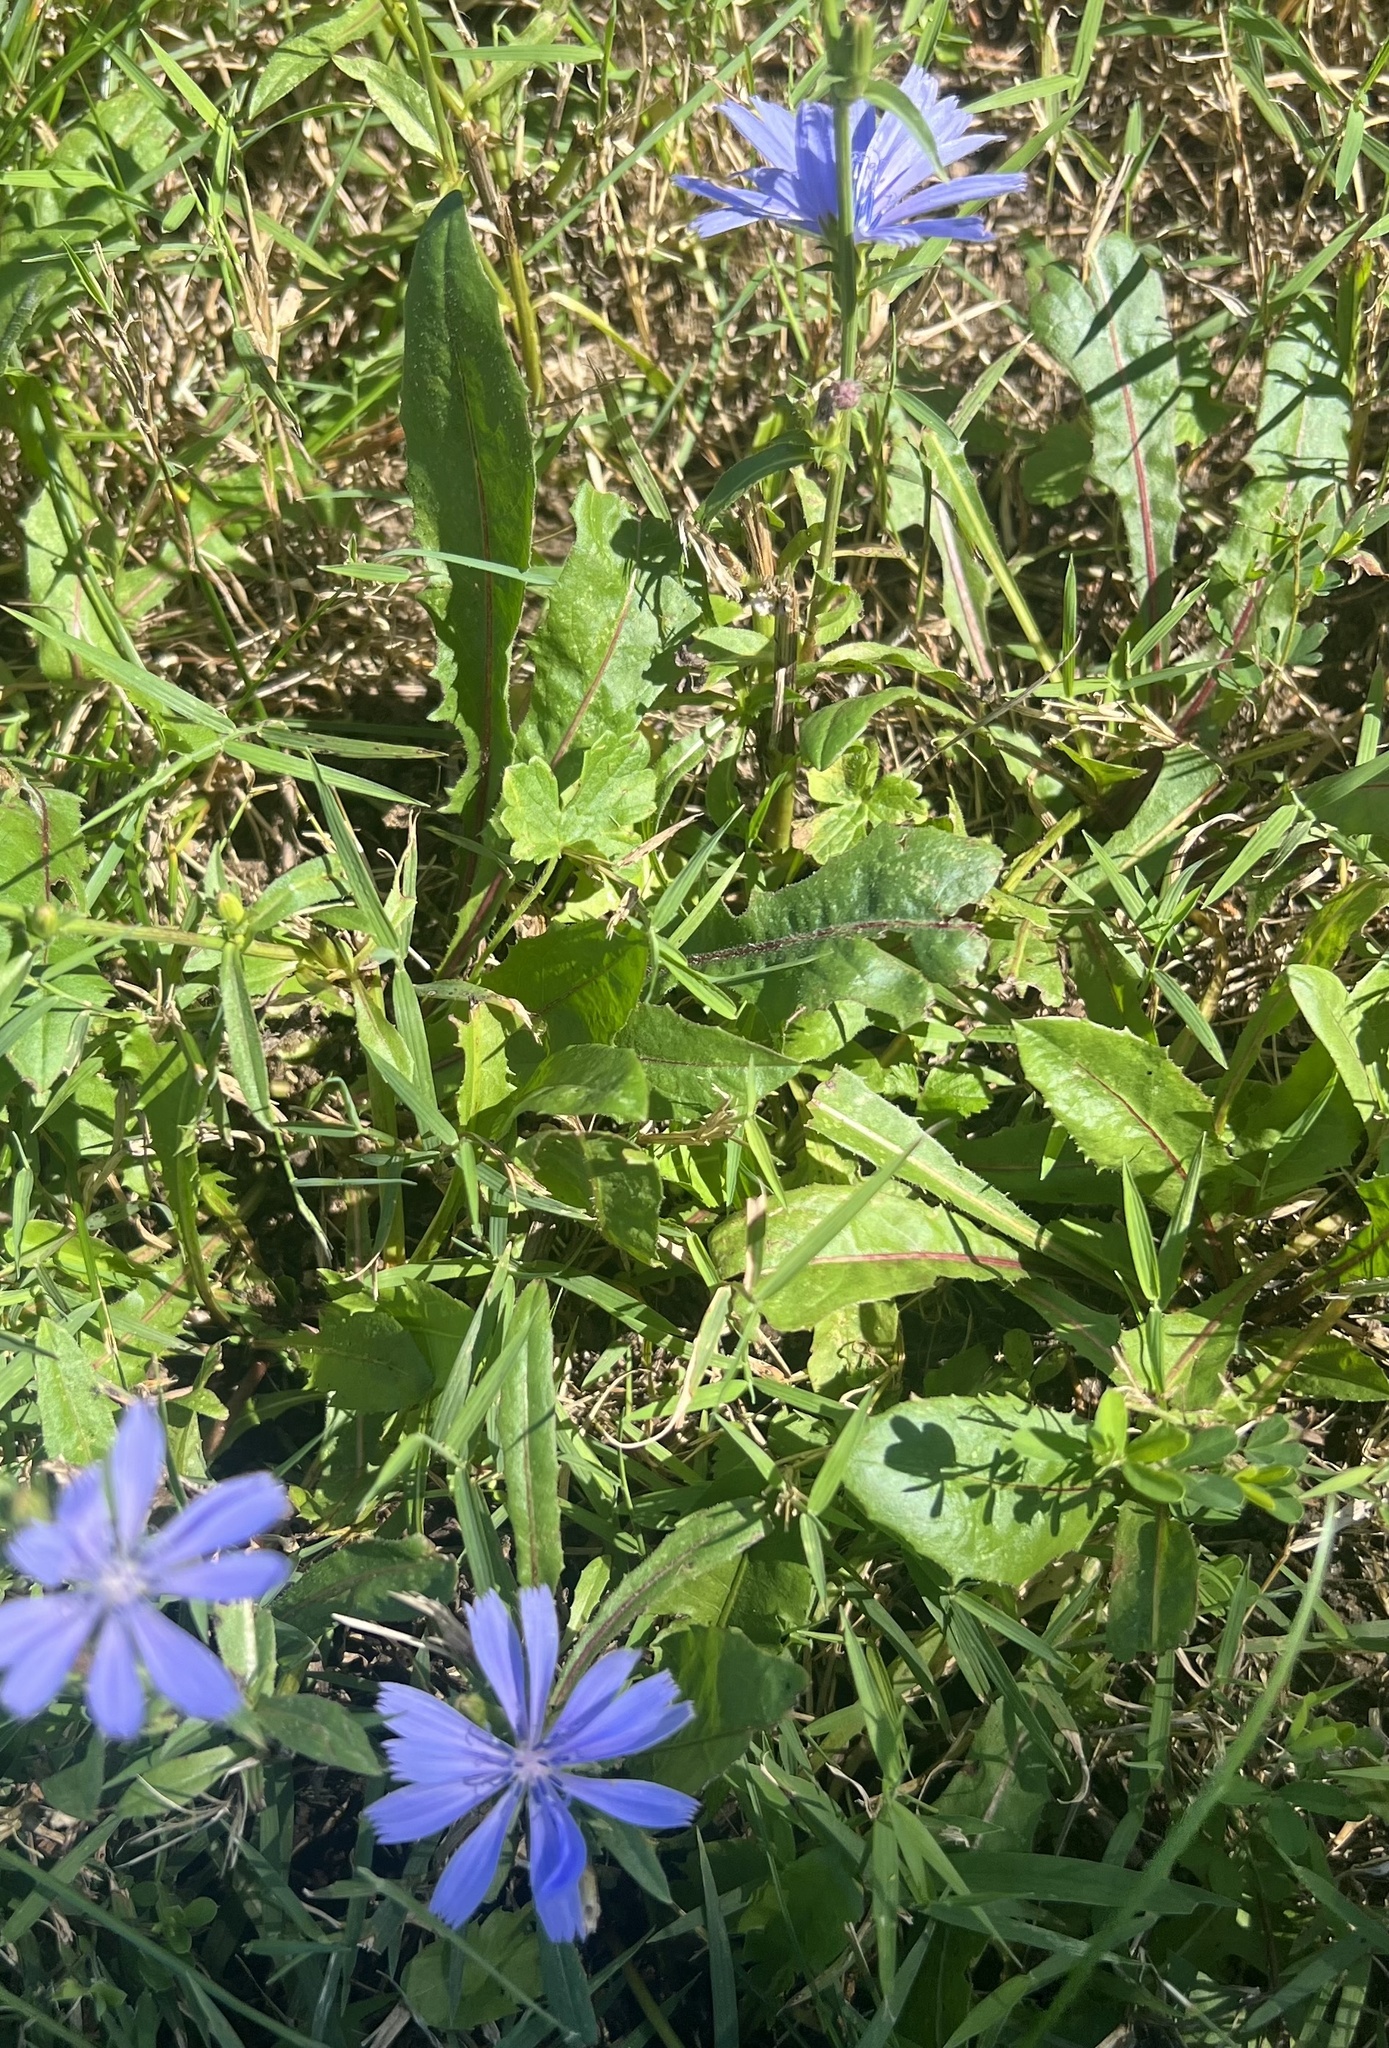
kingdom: Plantae
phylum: Tracheophyta
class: Magnoliopsida
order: Asterales
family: Asteraceae
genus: Cichorium
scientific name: Cichorium intybus
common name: Chicory
